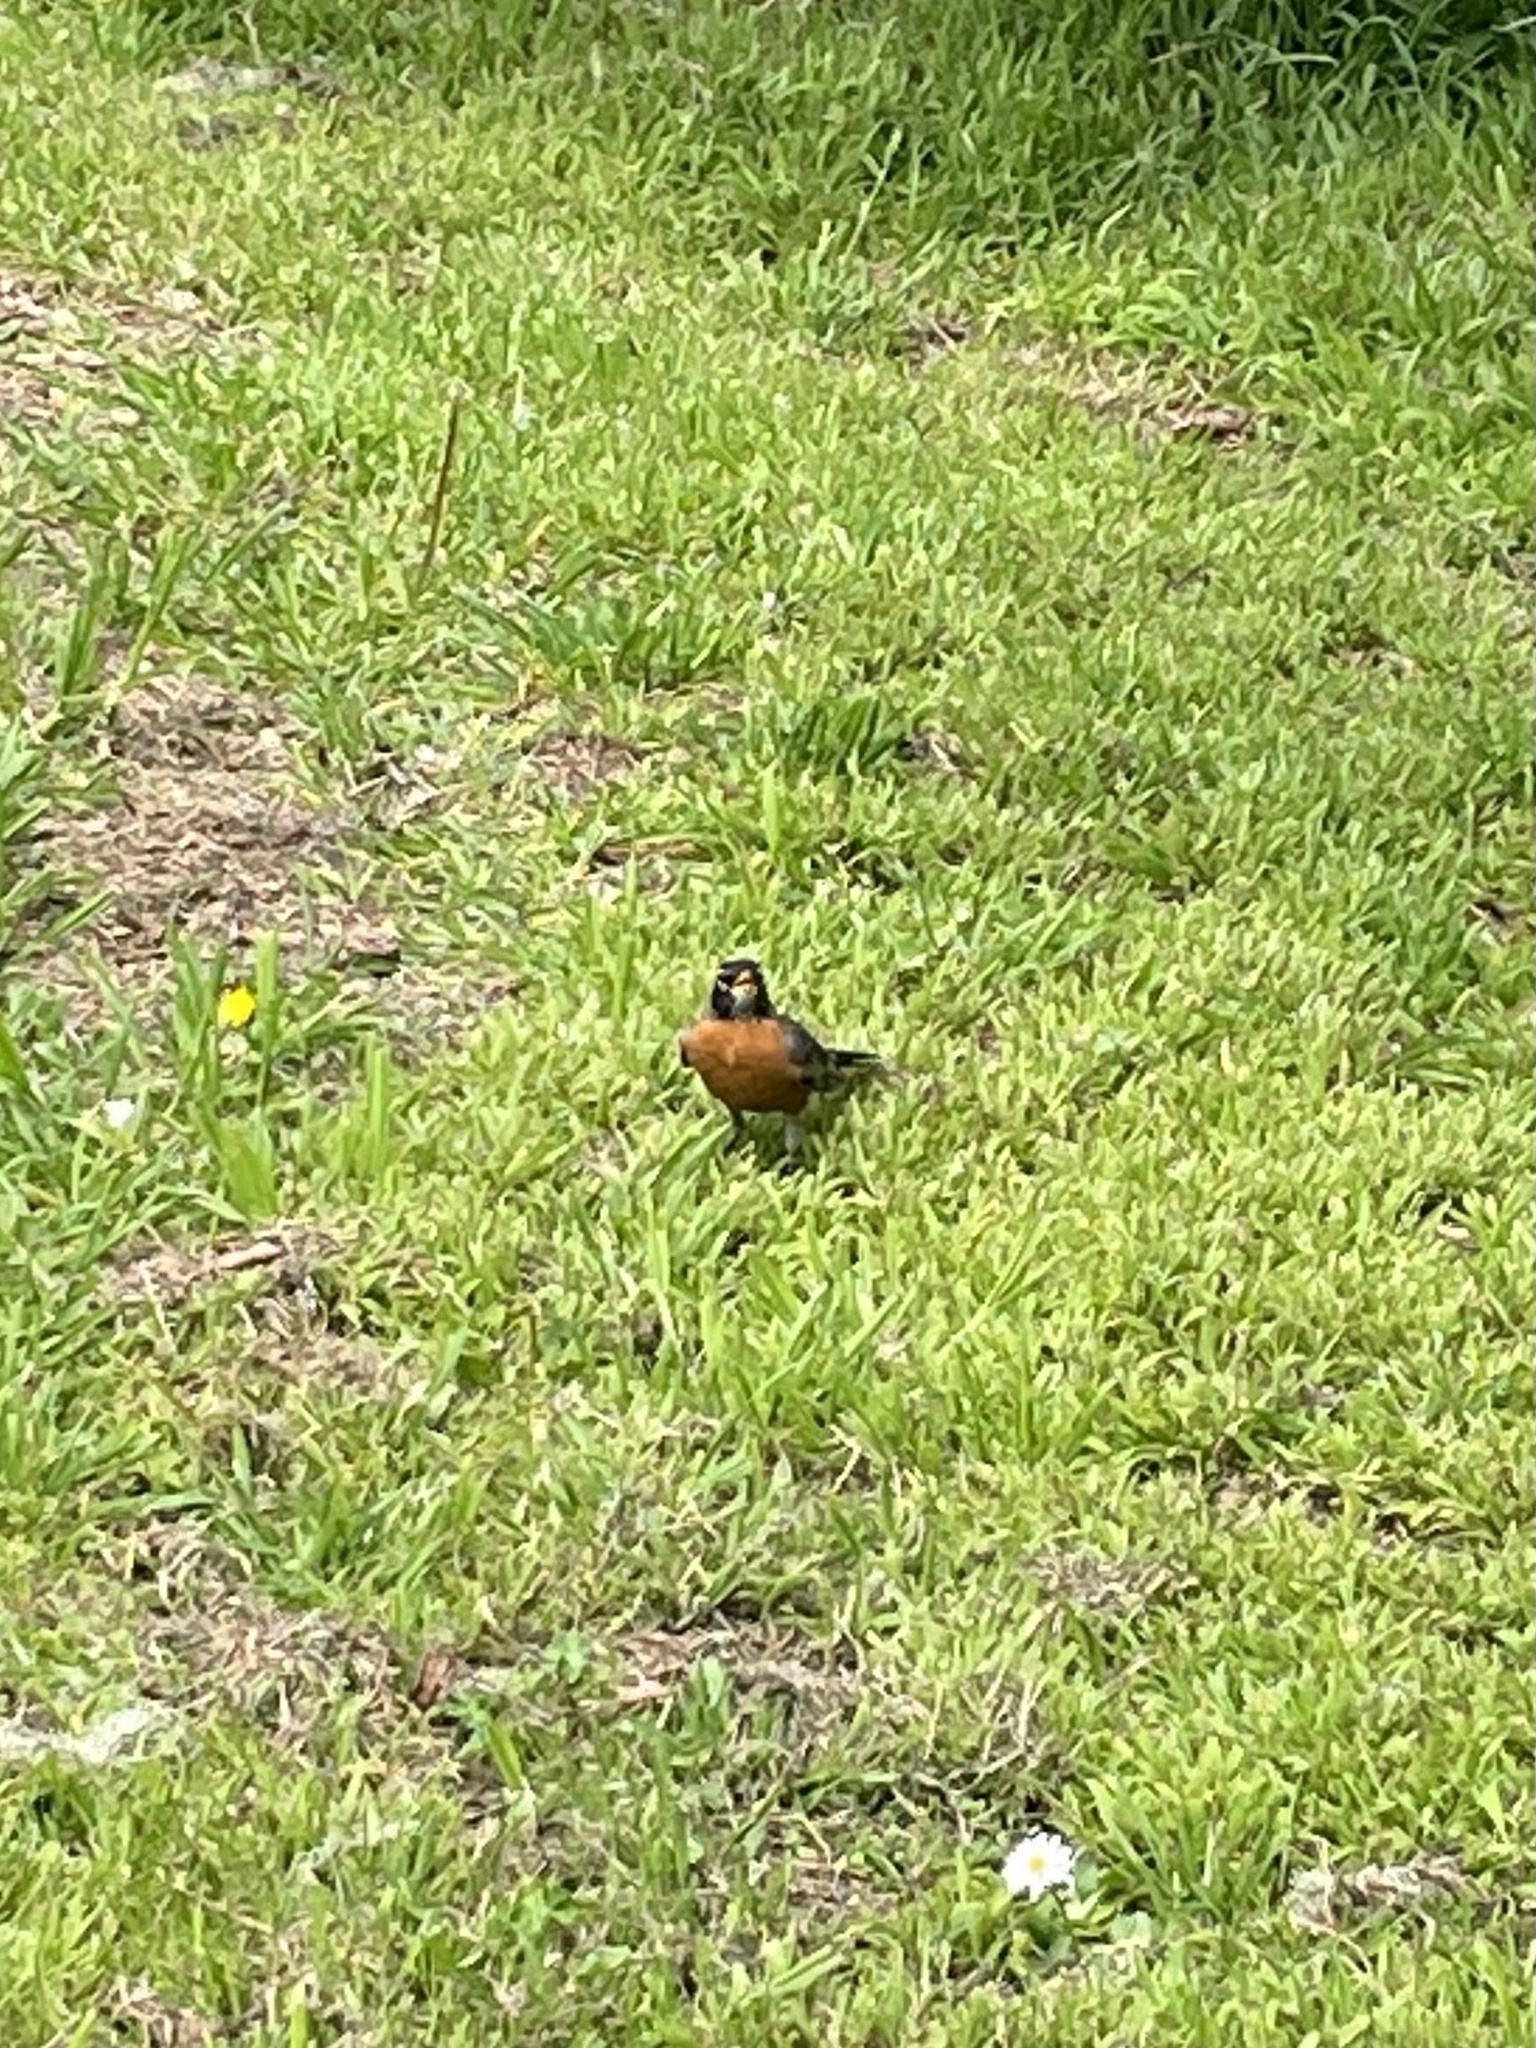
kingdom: Animalia
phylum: Chordata
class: Aves
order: Passeriformes
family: Turdidae
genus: Turdus
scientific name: Turdus migratorius
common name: American robin
